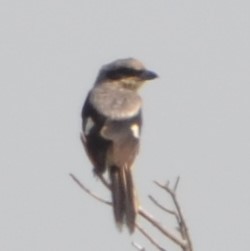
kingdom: Animalia
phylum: Chordata
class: Aves
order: Passeriformes
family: Laniidae
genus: Lanius
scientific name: Lanius ludovicianus
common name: Loggerhead shrike
